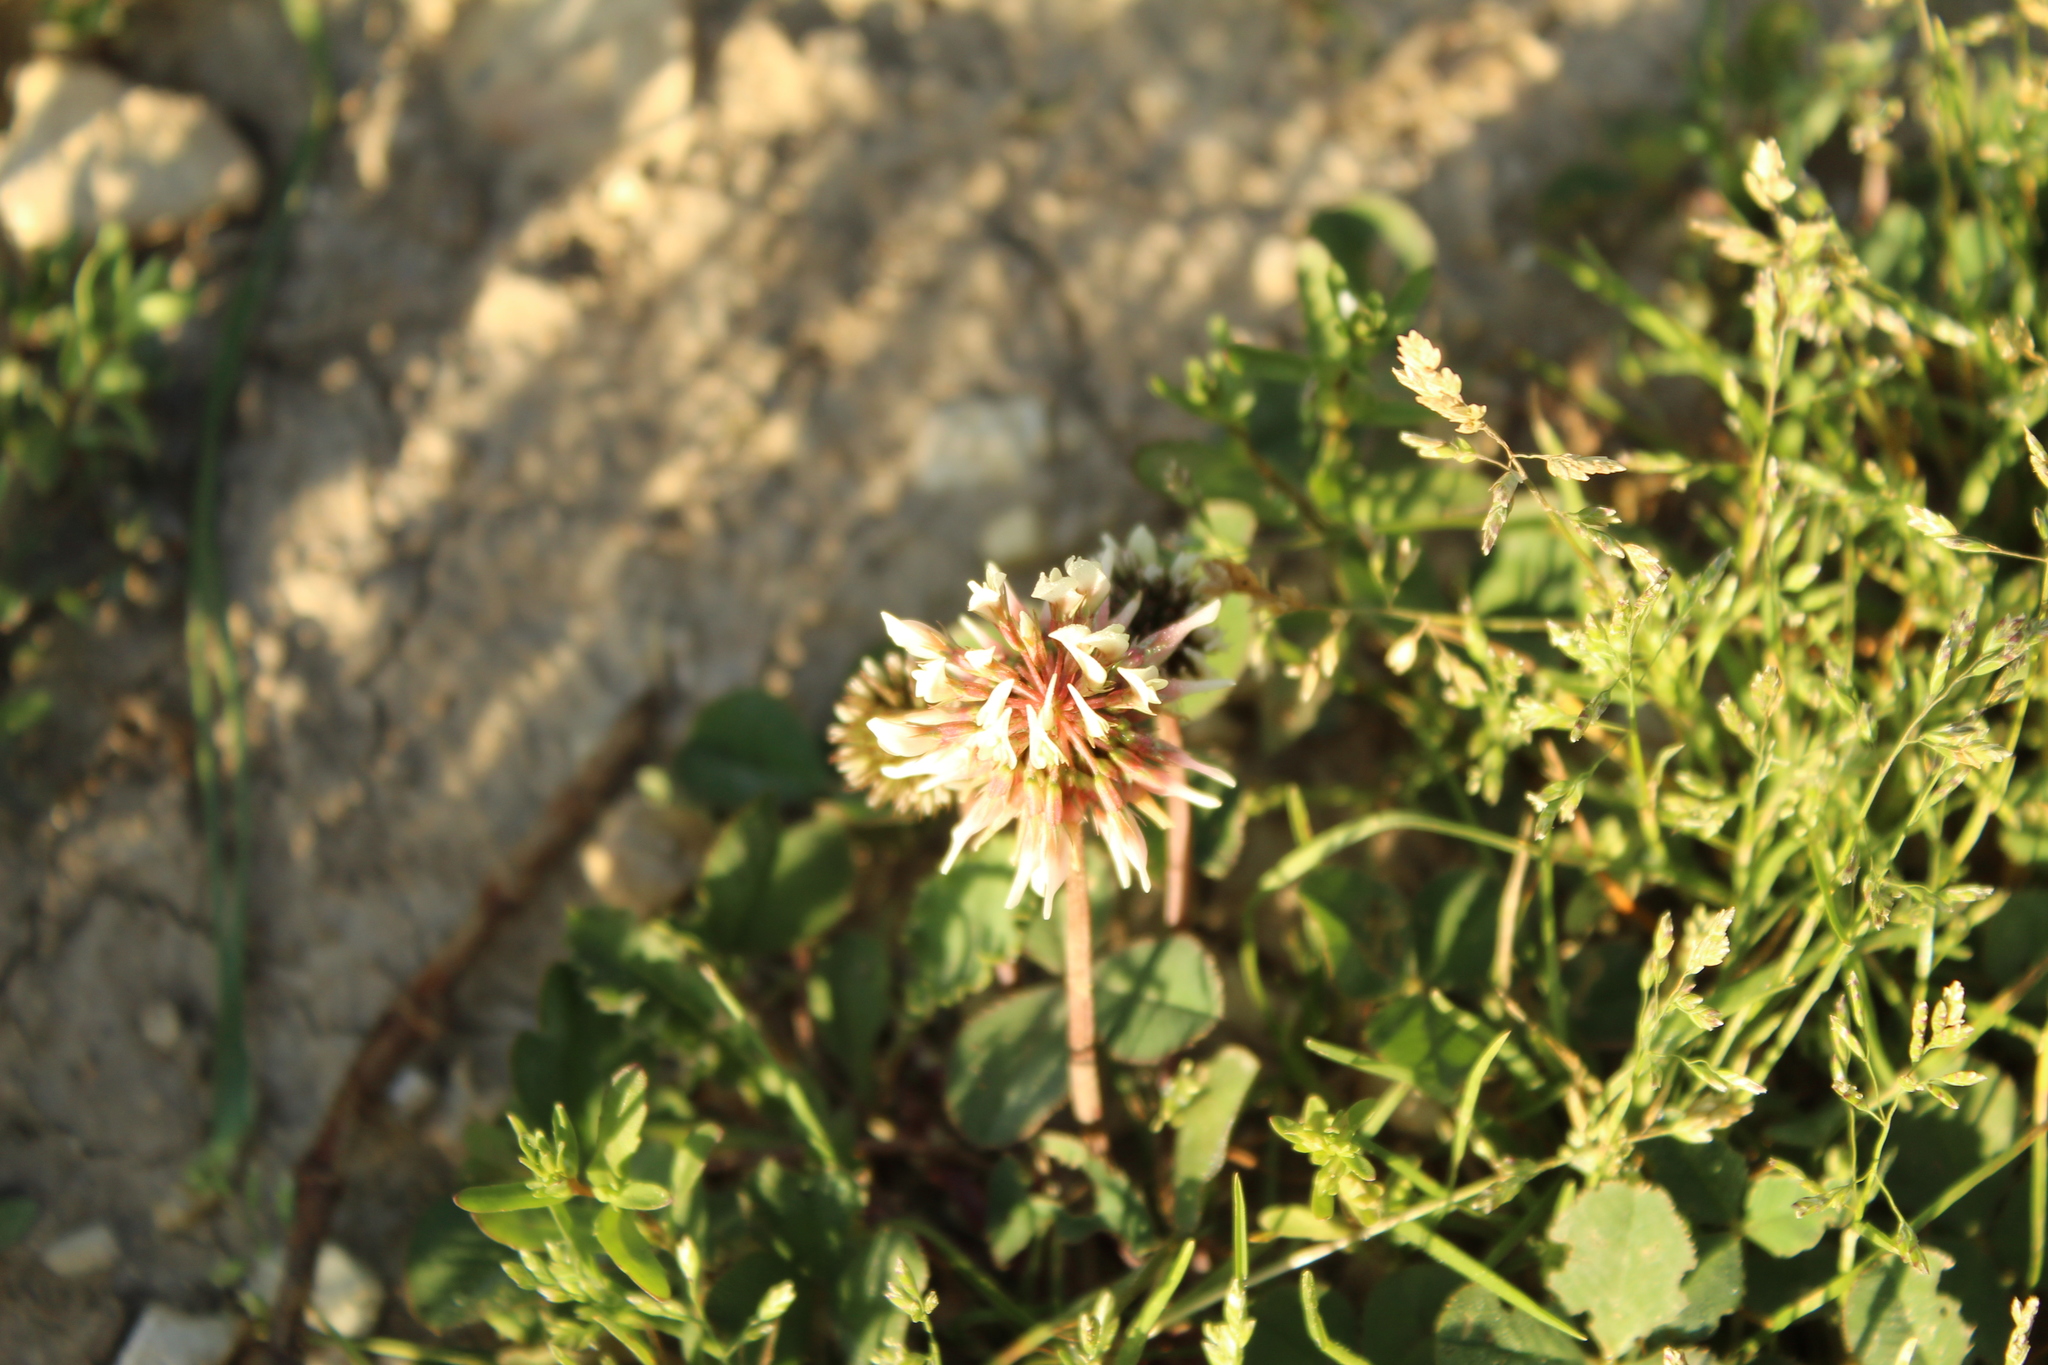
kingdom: Plantae
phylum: Tracheophyta
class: Magnoliopsida
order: Fabales
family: Fabaceae
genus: Trifolium
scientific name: Trifolium repens
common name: White clover
